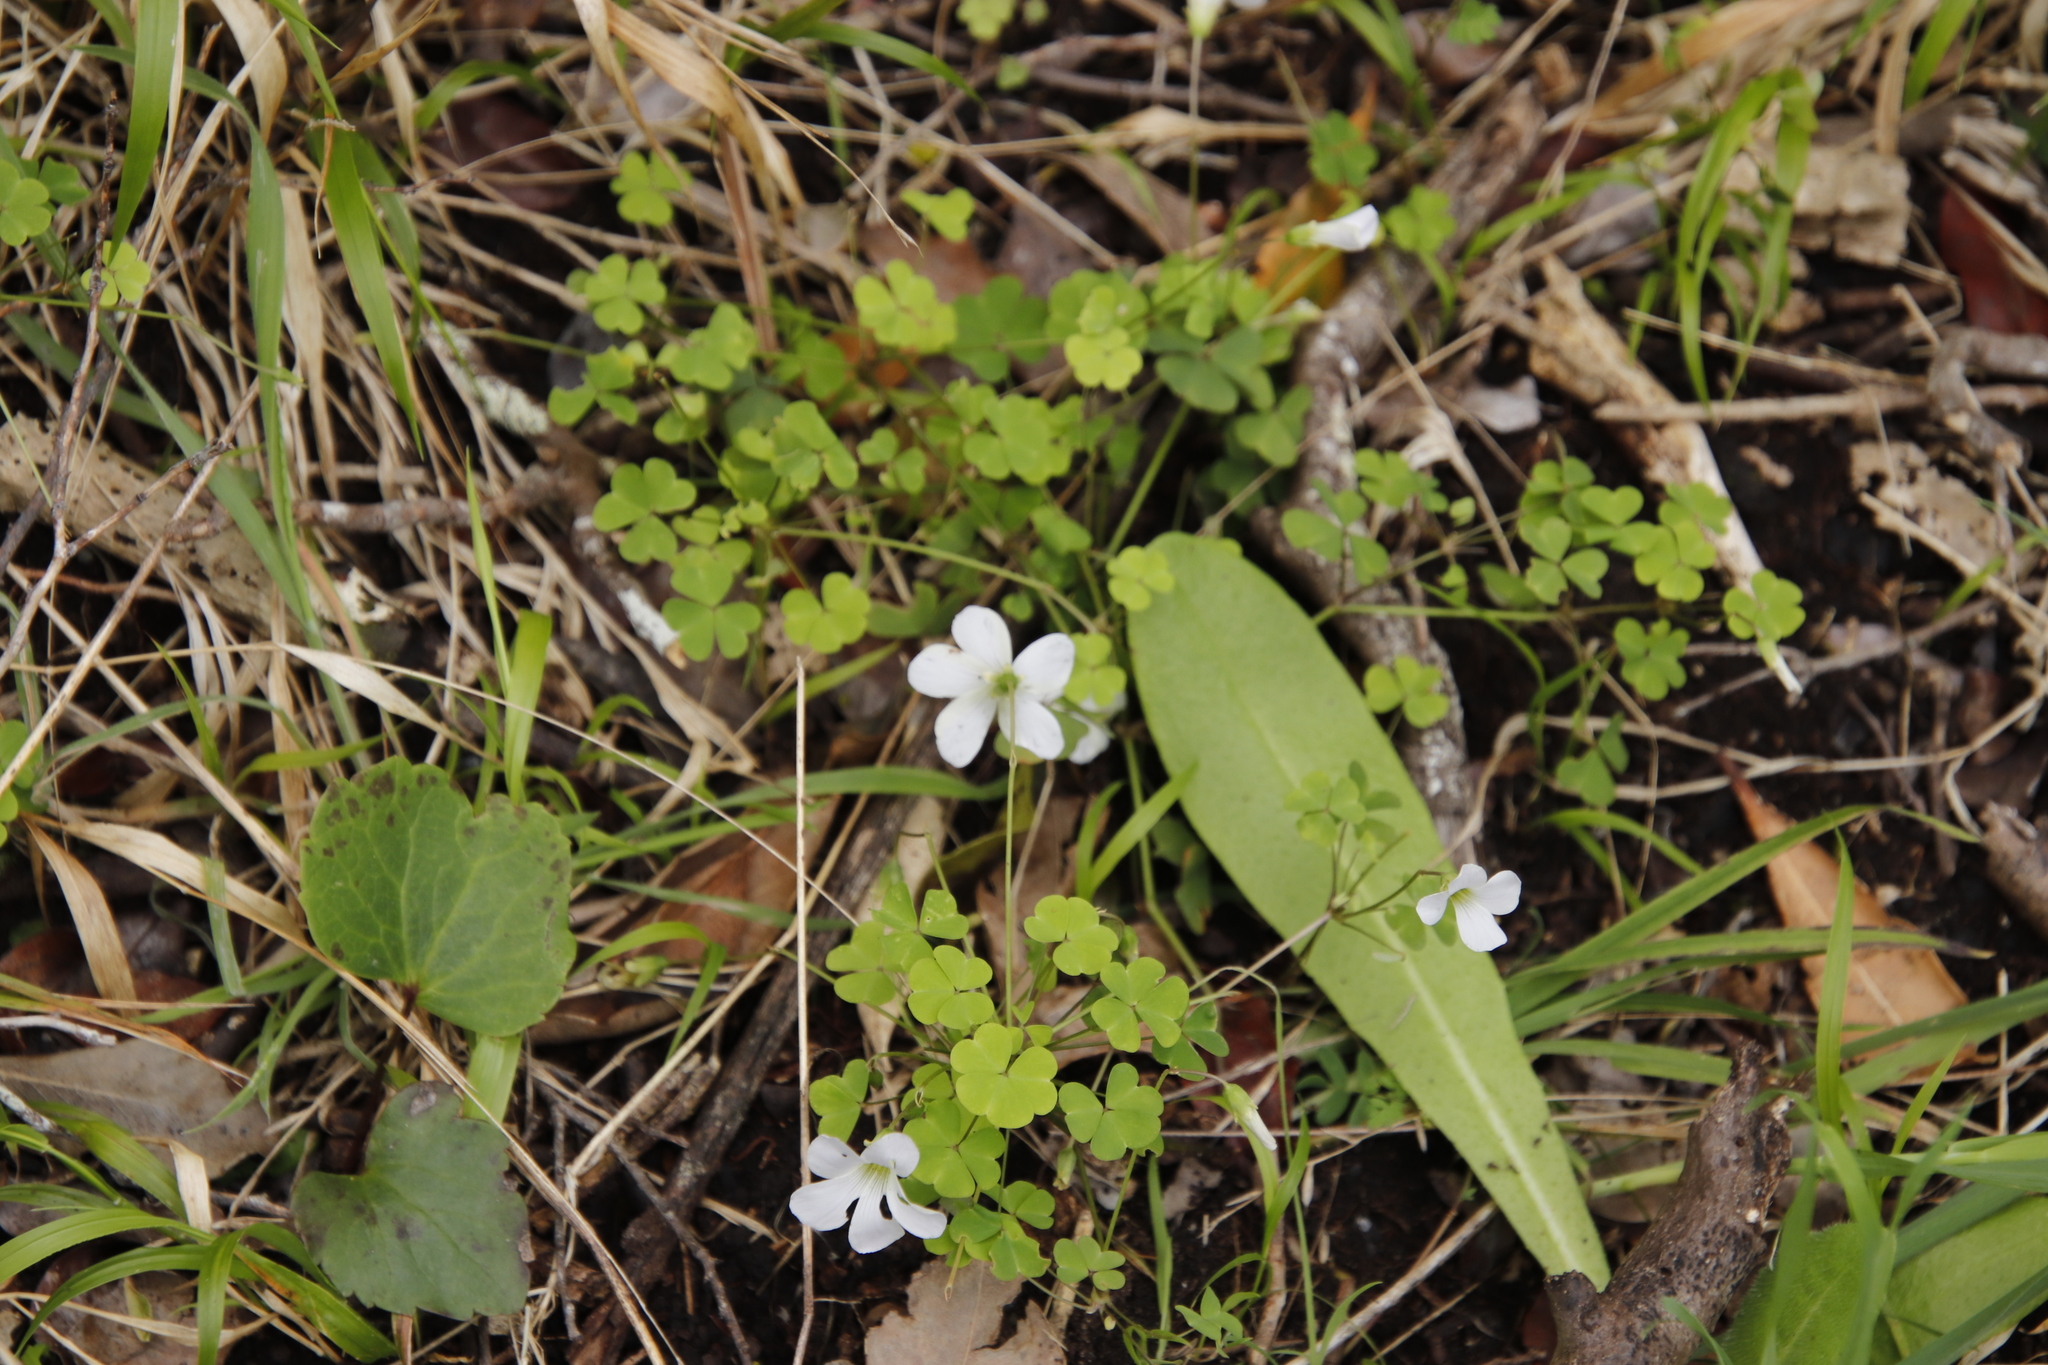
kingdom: Plantae
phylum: Tracheophyta
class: Magnoliopsida
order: Oxalidales
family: Oxalidaceae
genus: Oxalis
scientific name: Oxalis incarnata
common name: Pale pink-sorrel
